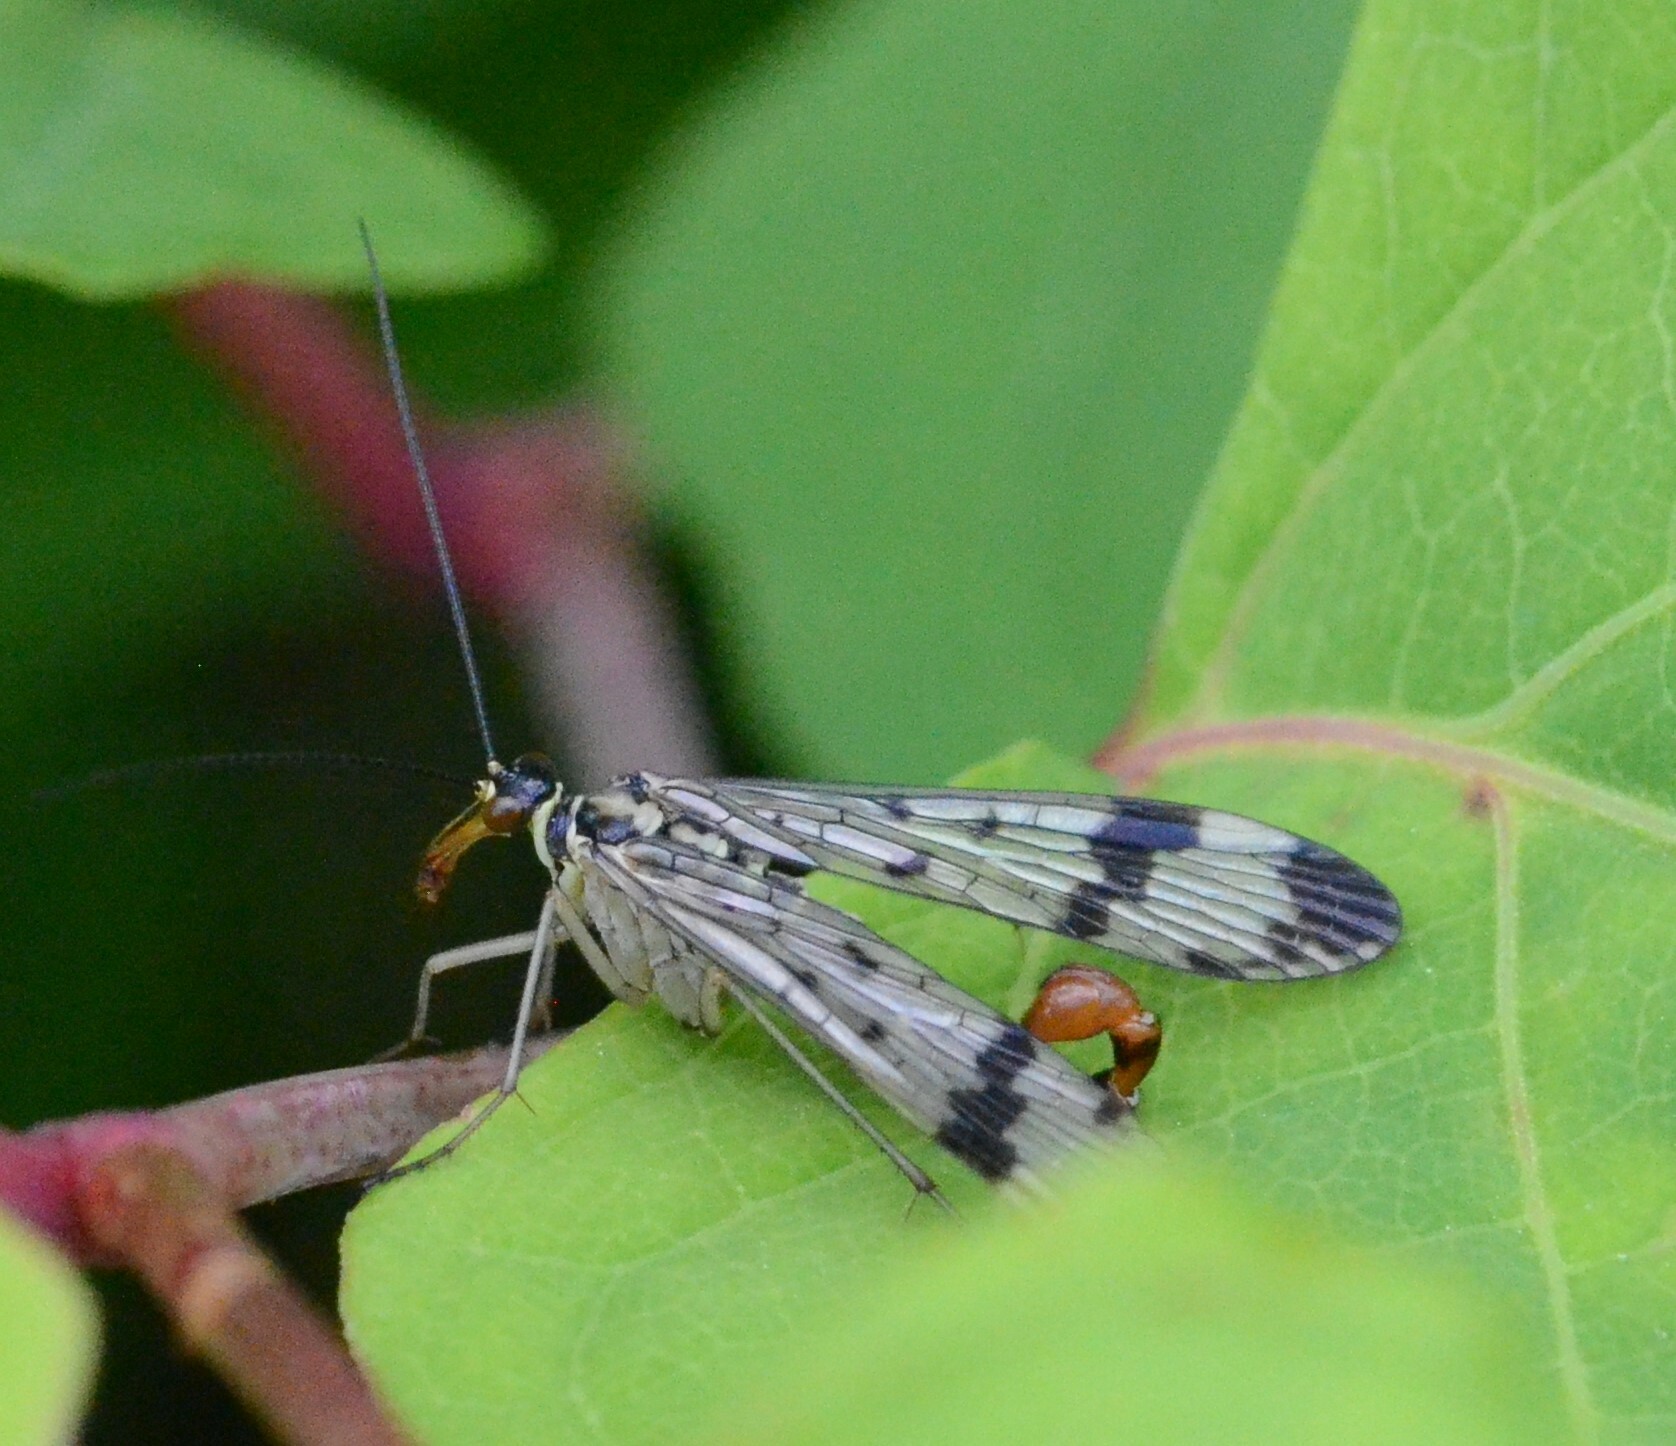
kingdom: Animalia
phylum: Arthropoda
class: Insecta
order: Mecoptera
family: Panorpidae
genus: Panorpa
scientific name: Panorpa communis
